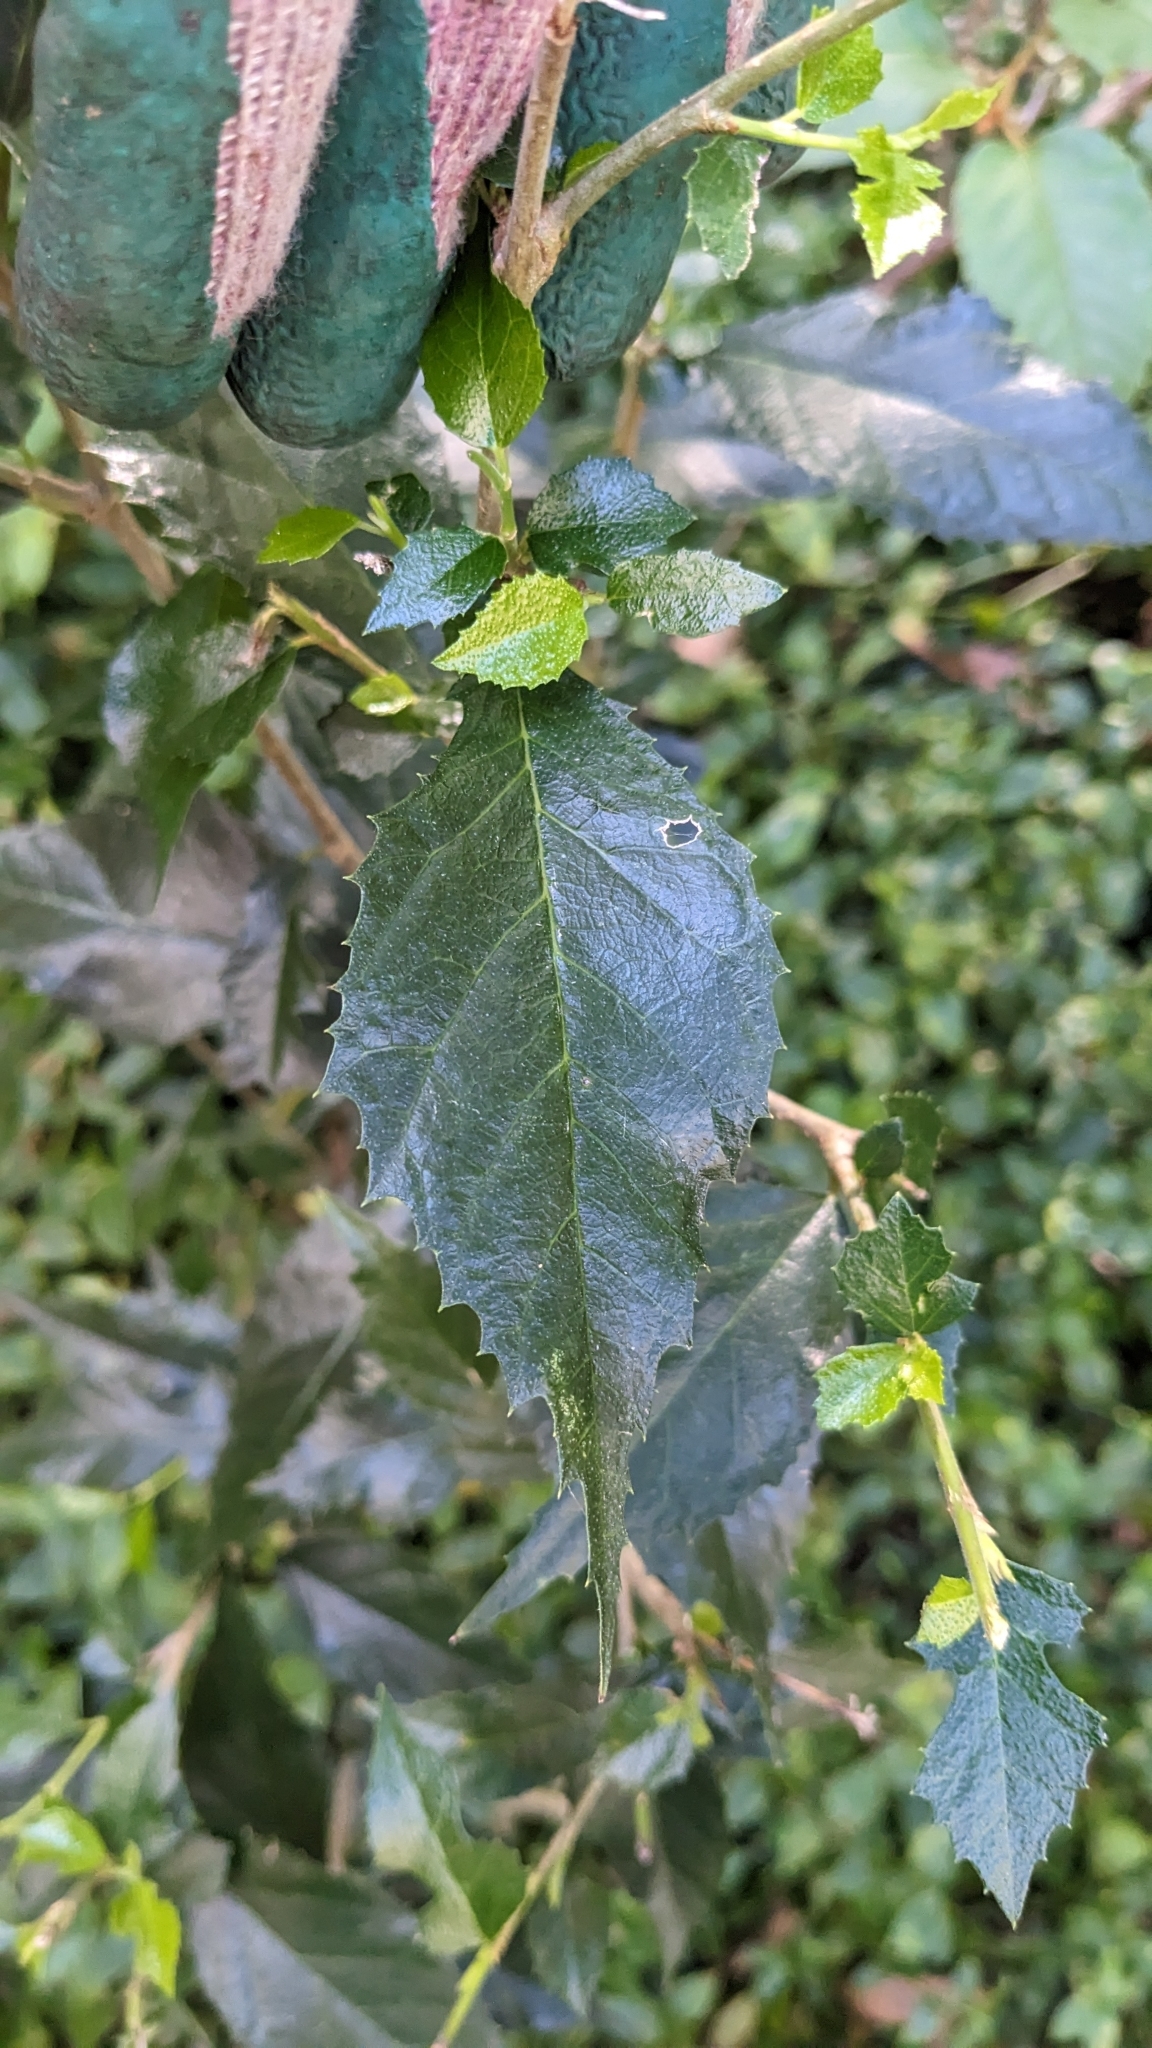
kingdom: Plantae
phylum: Tracheophyta
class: Magnoliopsida
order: Rosales
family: Moraceae
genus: Paratrophis
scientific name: Paratrophis pendulina
